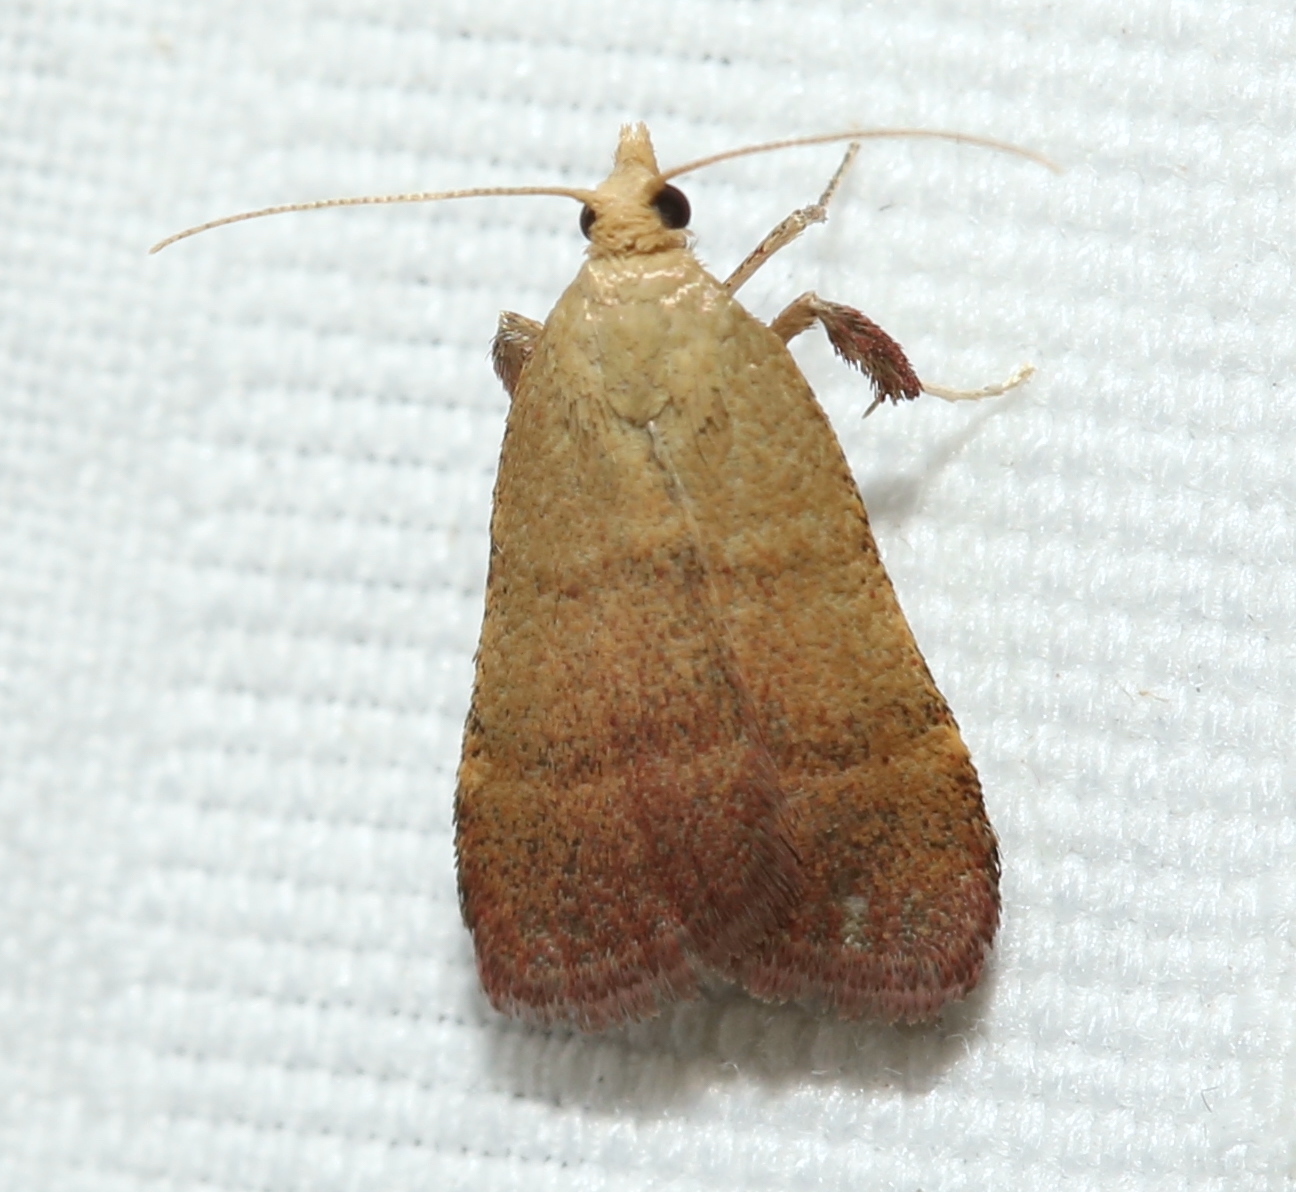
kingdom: Animalia
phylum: Arthropoda
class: Insecta
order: Lepidoptera
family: Pyralidae
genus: Condylolomia
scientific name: Condylolomia participialis
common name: Drab condylolomia moth
